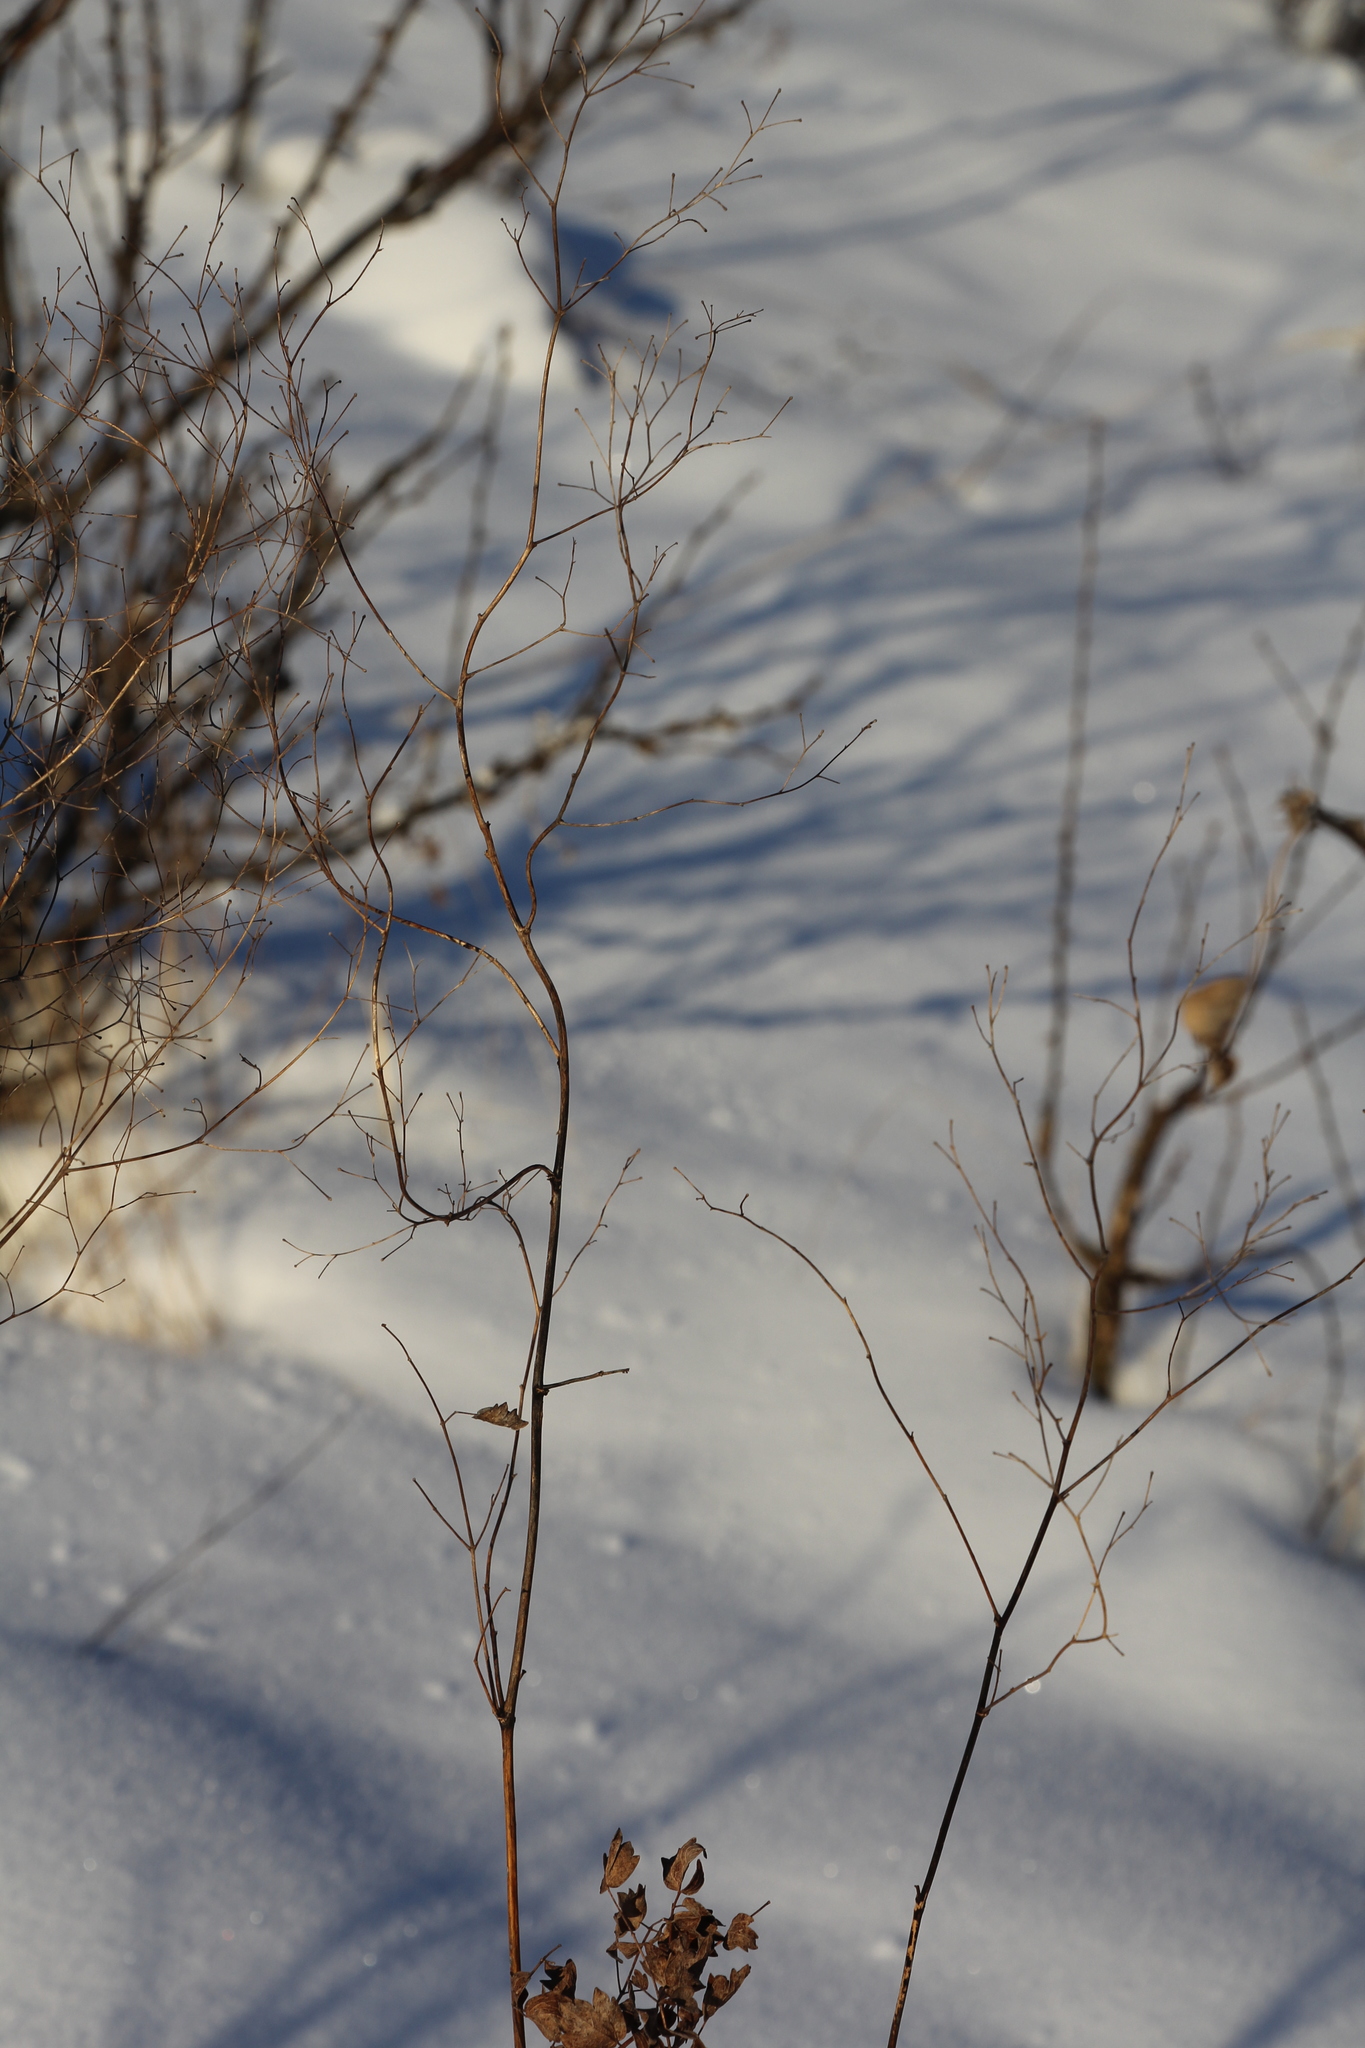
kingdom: Plantae
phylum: Tracheophyta
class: Magnoliopsida
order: Ranunculales
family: Ranunculaceae
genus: Thalictrum
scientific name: Thalictrum minus
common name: Lesser meadow-rue
